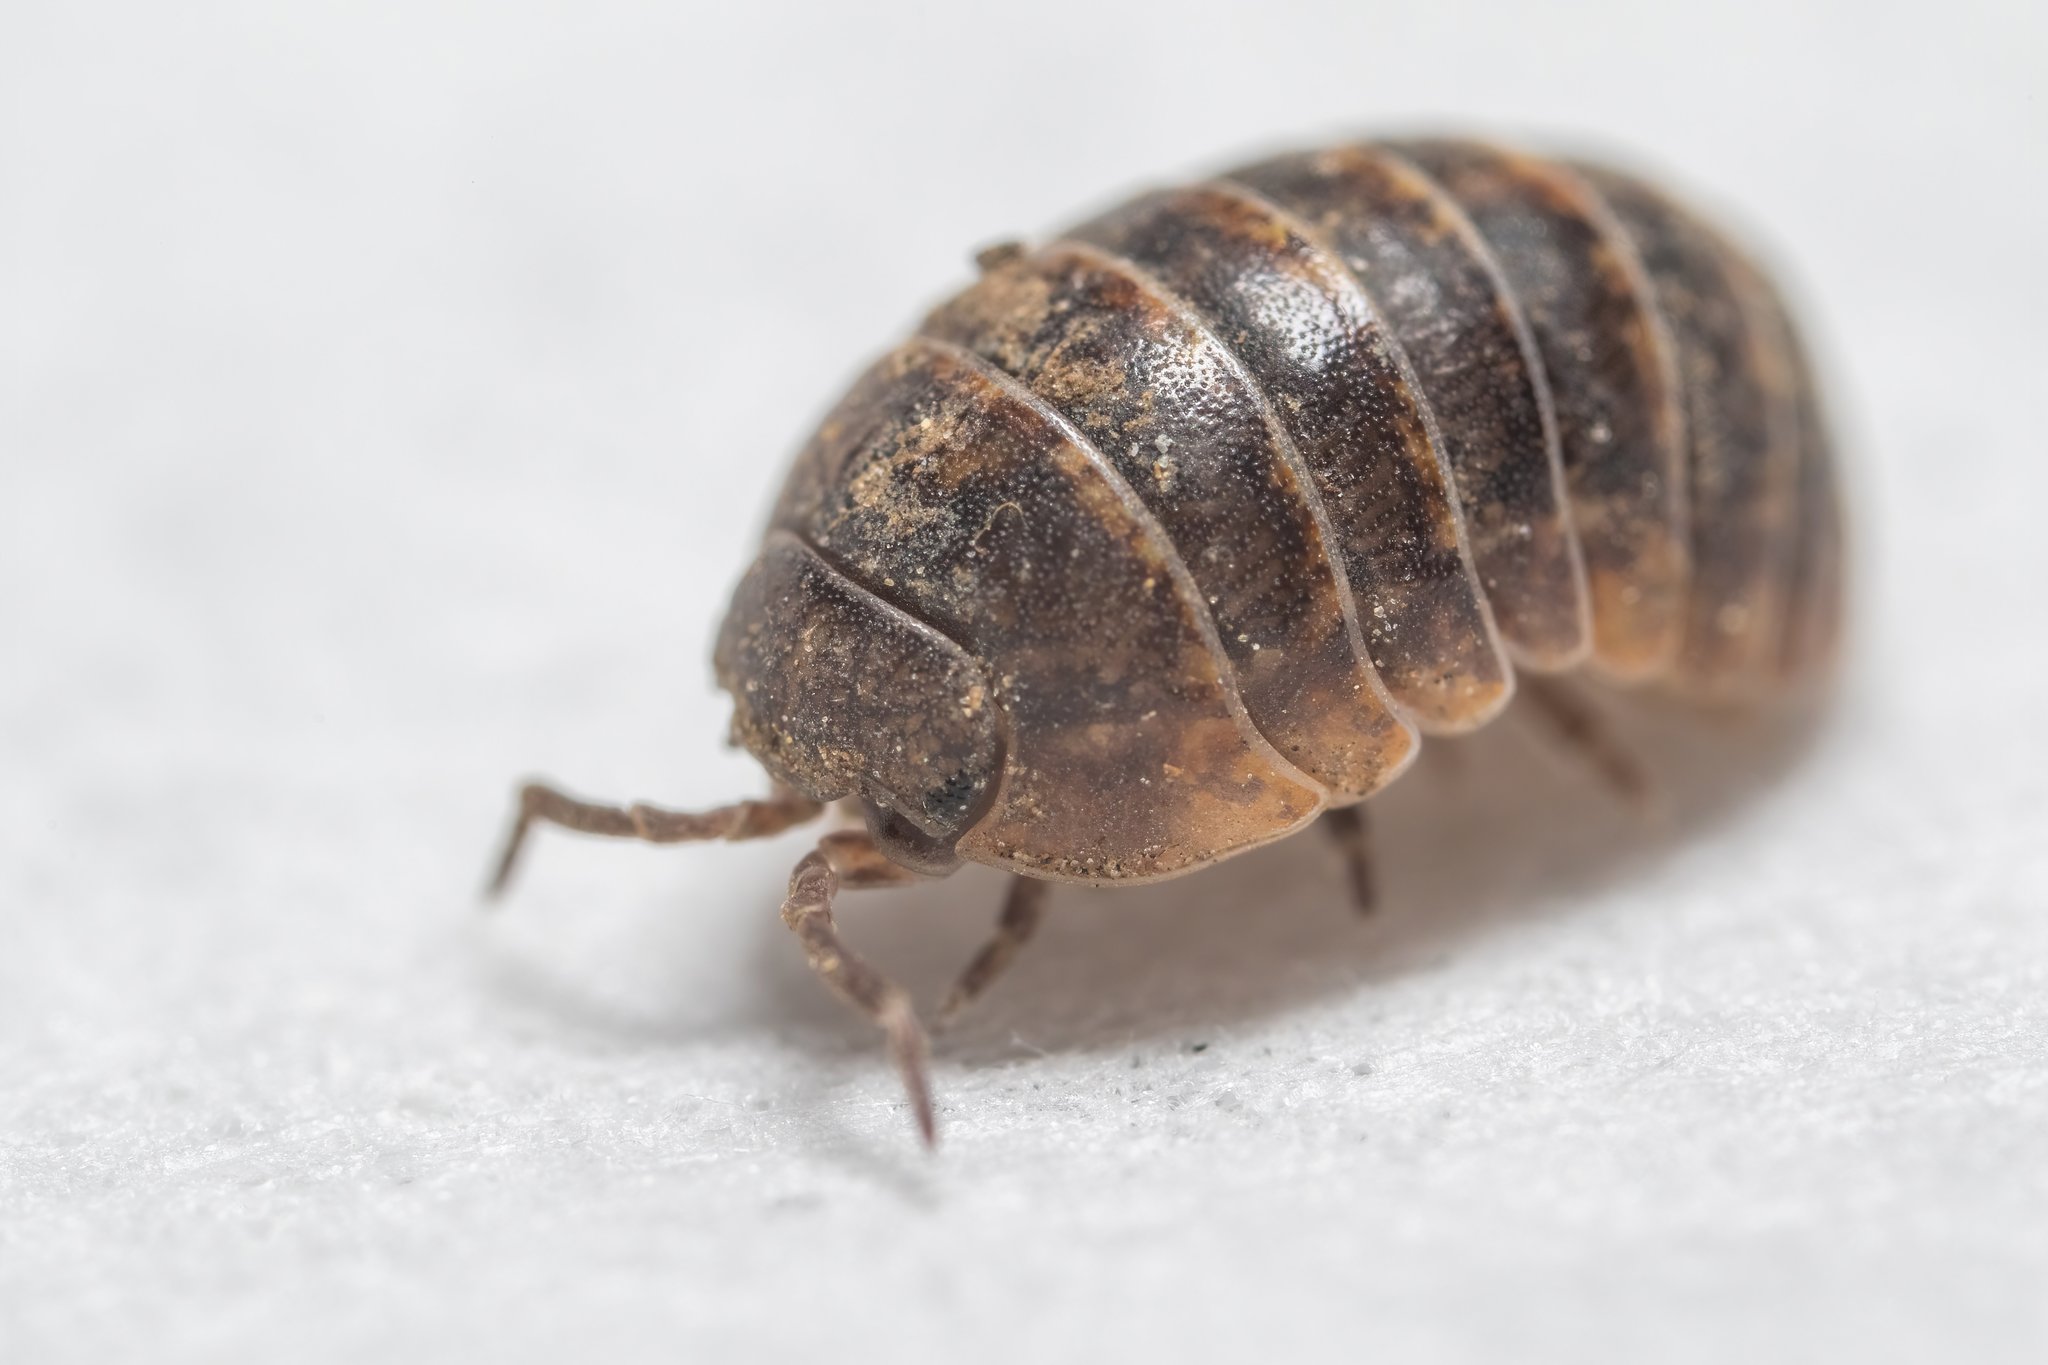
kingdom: Animalia
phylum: Arthropoda
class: Malacostraca
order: Isopoda
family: Armadillidiidae
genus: Armadillidium
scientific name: Armadillidium vulgare
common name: Common pill woodlouse
